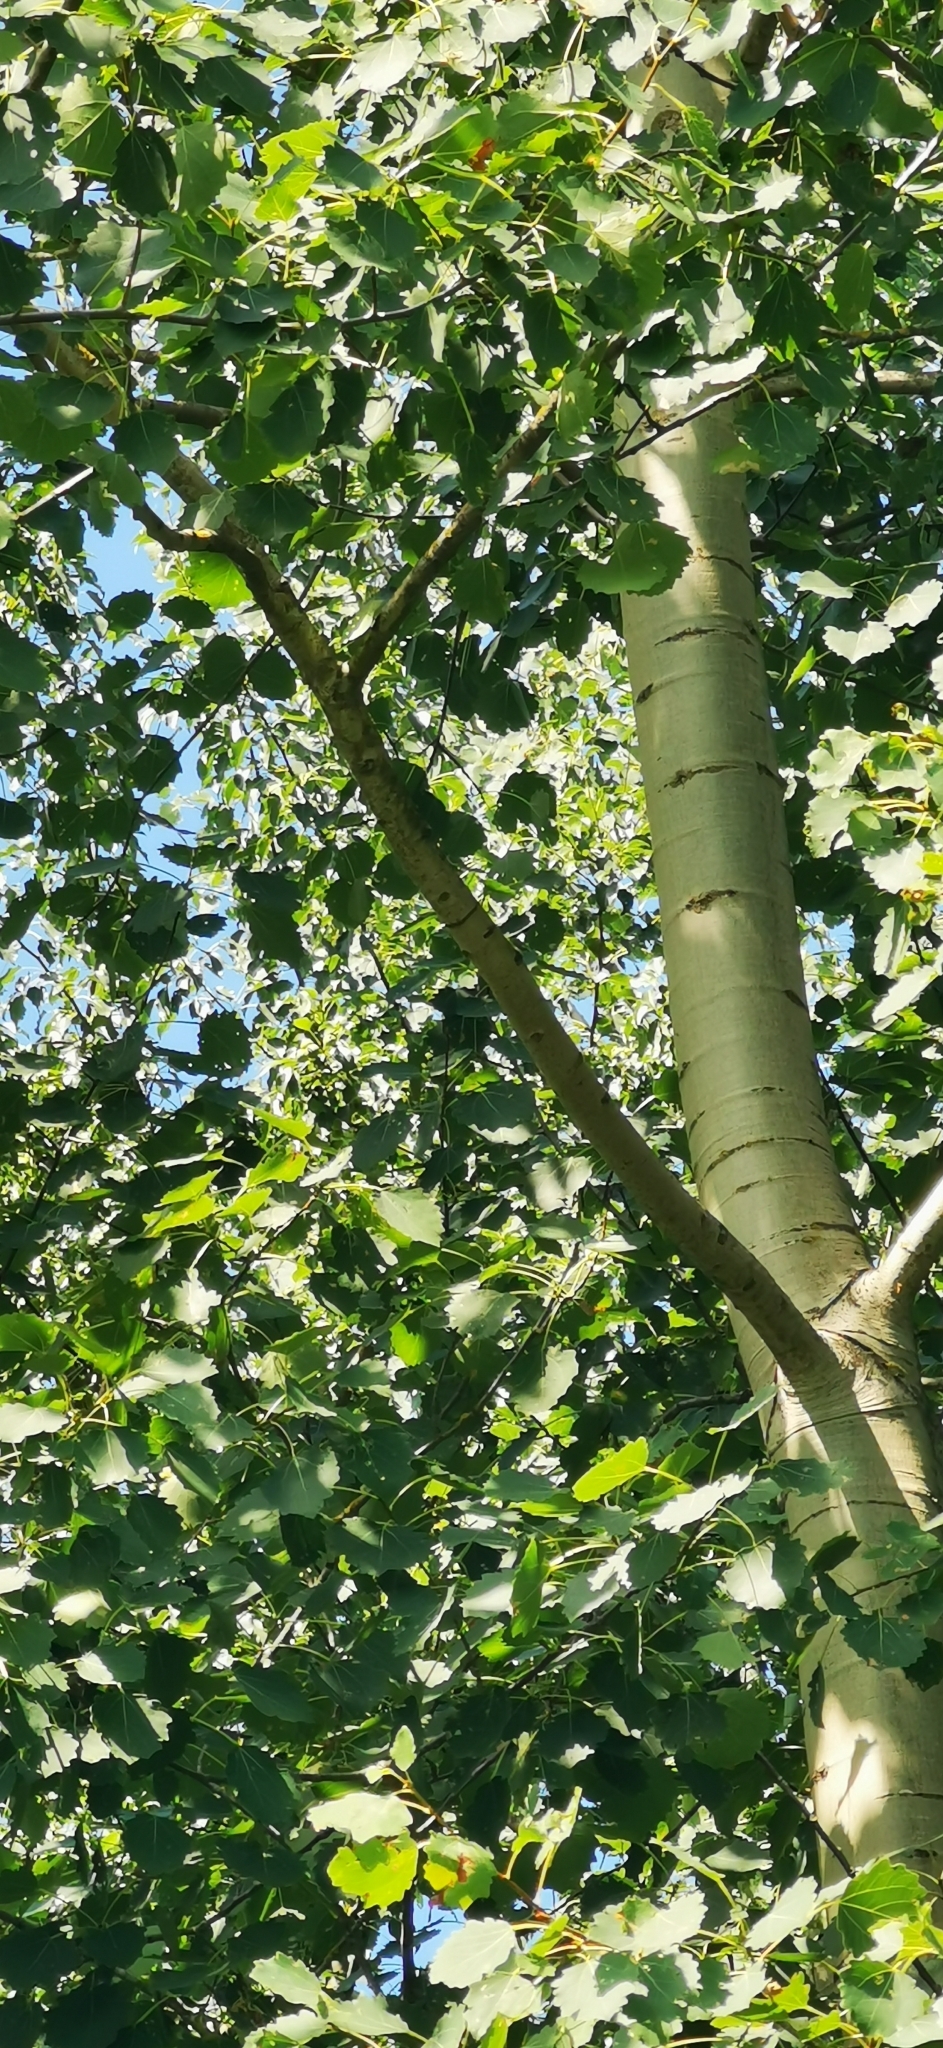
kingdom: Plantae
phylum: Tracheophyta
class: Magnoliopsida
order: Malpighiales
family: Salicaceae
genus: Populus
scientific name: Populus tremula
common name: European aspen
